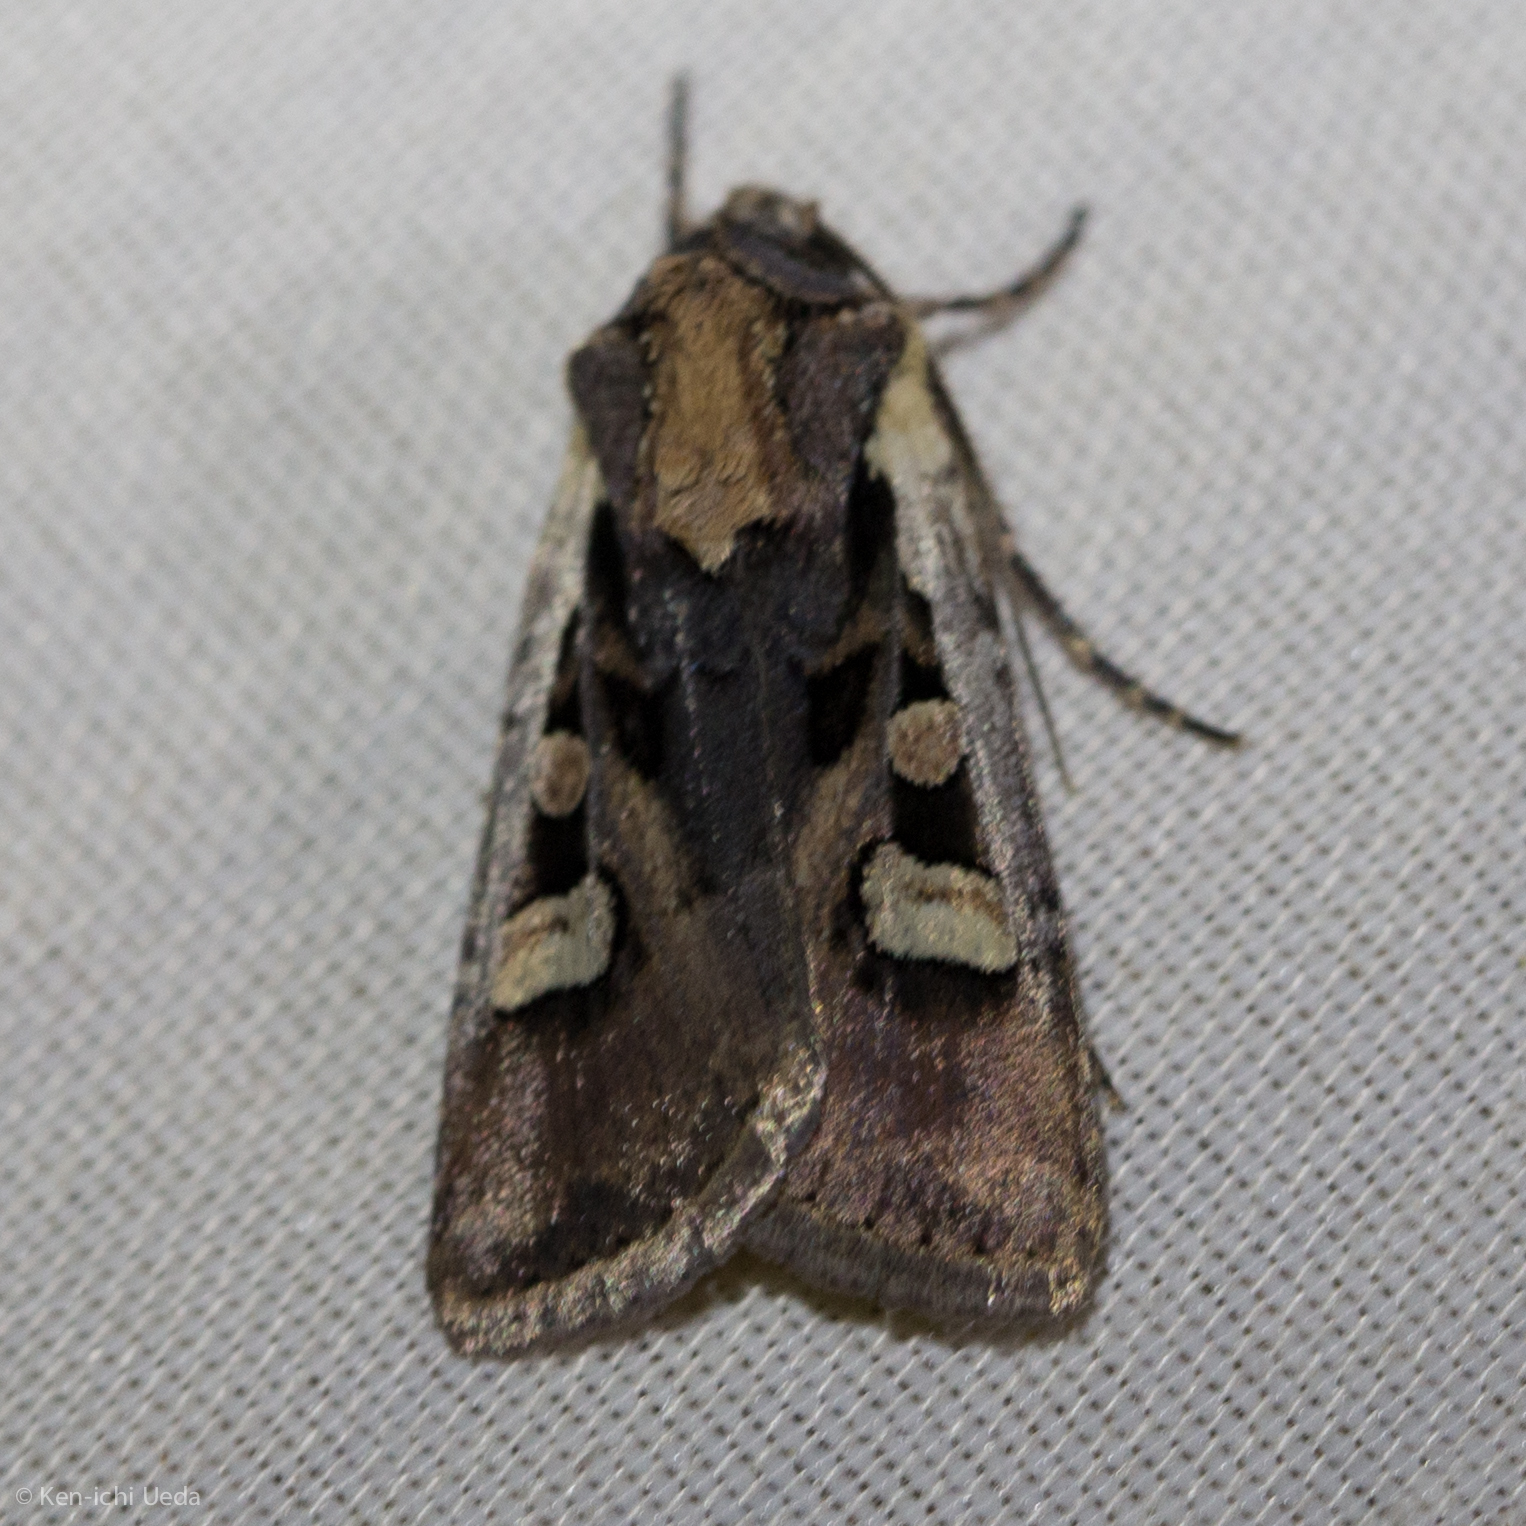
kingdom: Animalia
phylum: Arthropoda
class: Insecta
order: Lepidoptera
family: Noctuidae
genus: Euxoa
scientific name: Euxoa obeliscoides
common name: Obelisk dart moth
